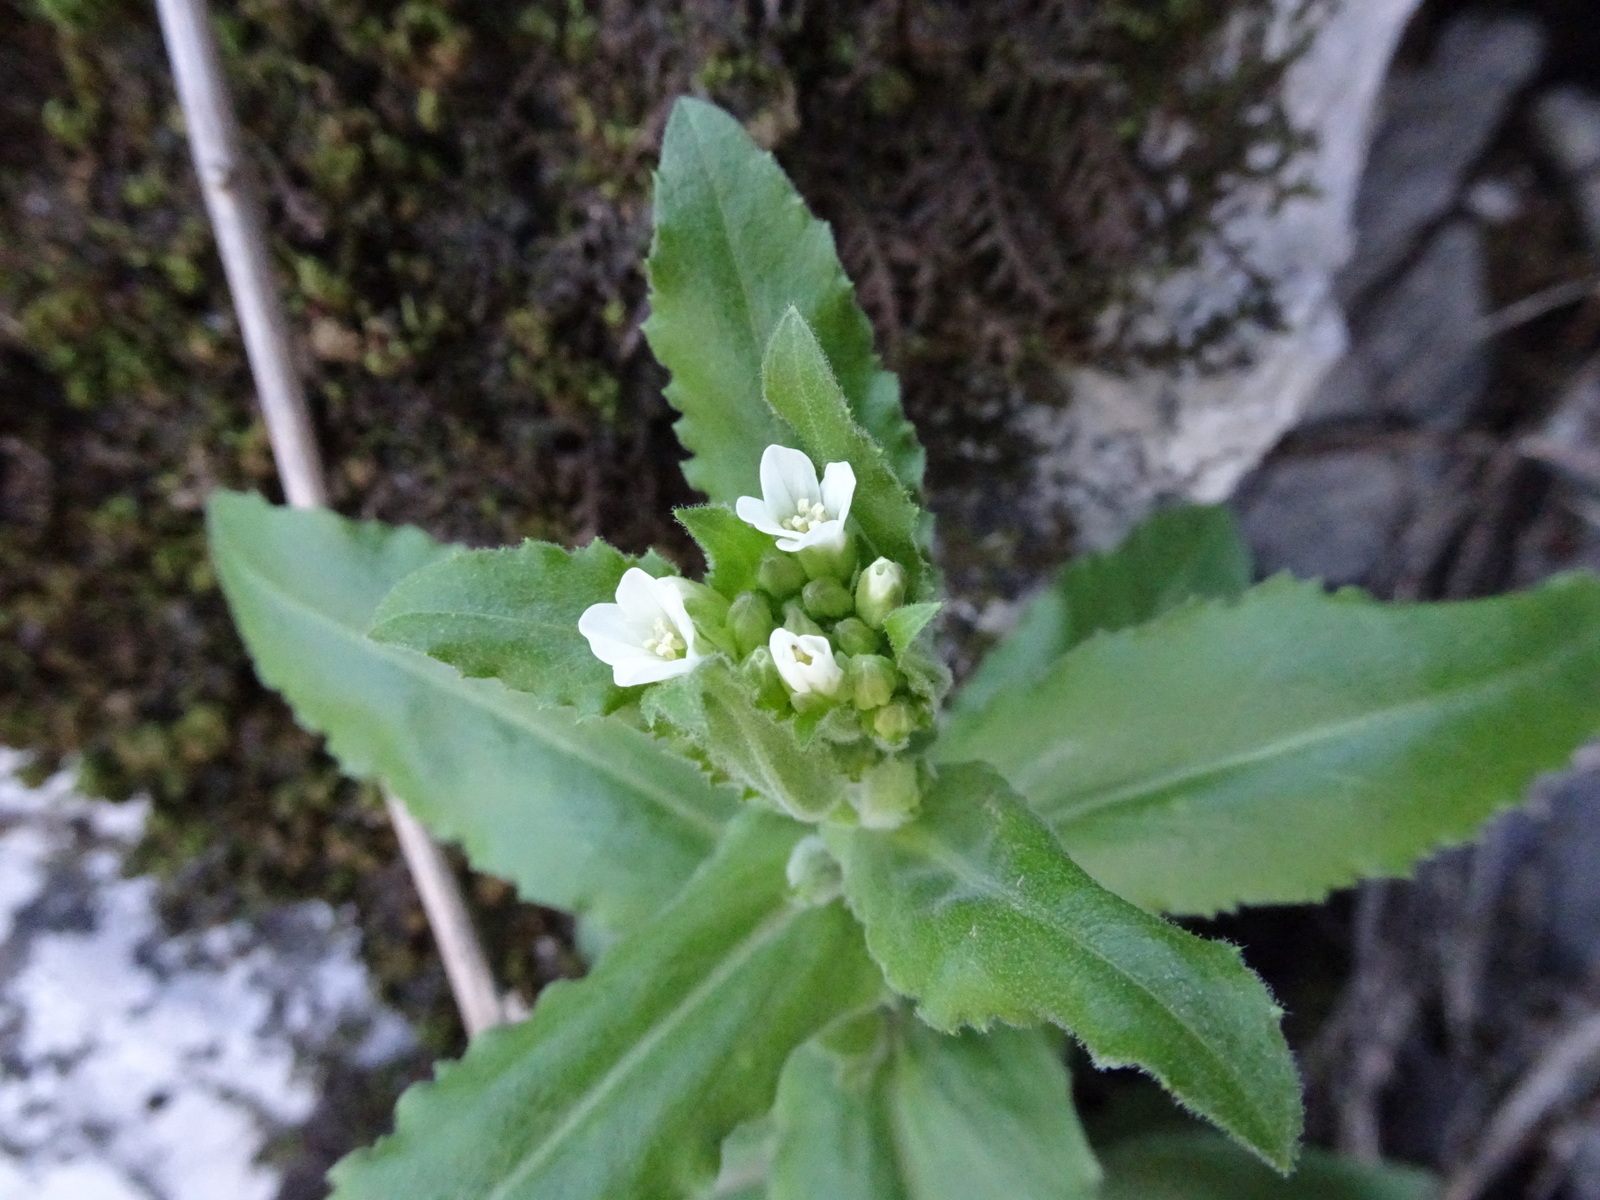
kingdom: Plantae
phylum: Tracheophyta
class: Magnoliopsida
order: Brassicales
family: Brassicaceae
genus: Pseudoturritis
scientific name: Pseudoturritis turrita
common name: Tower cress
